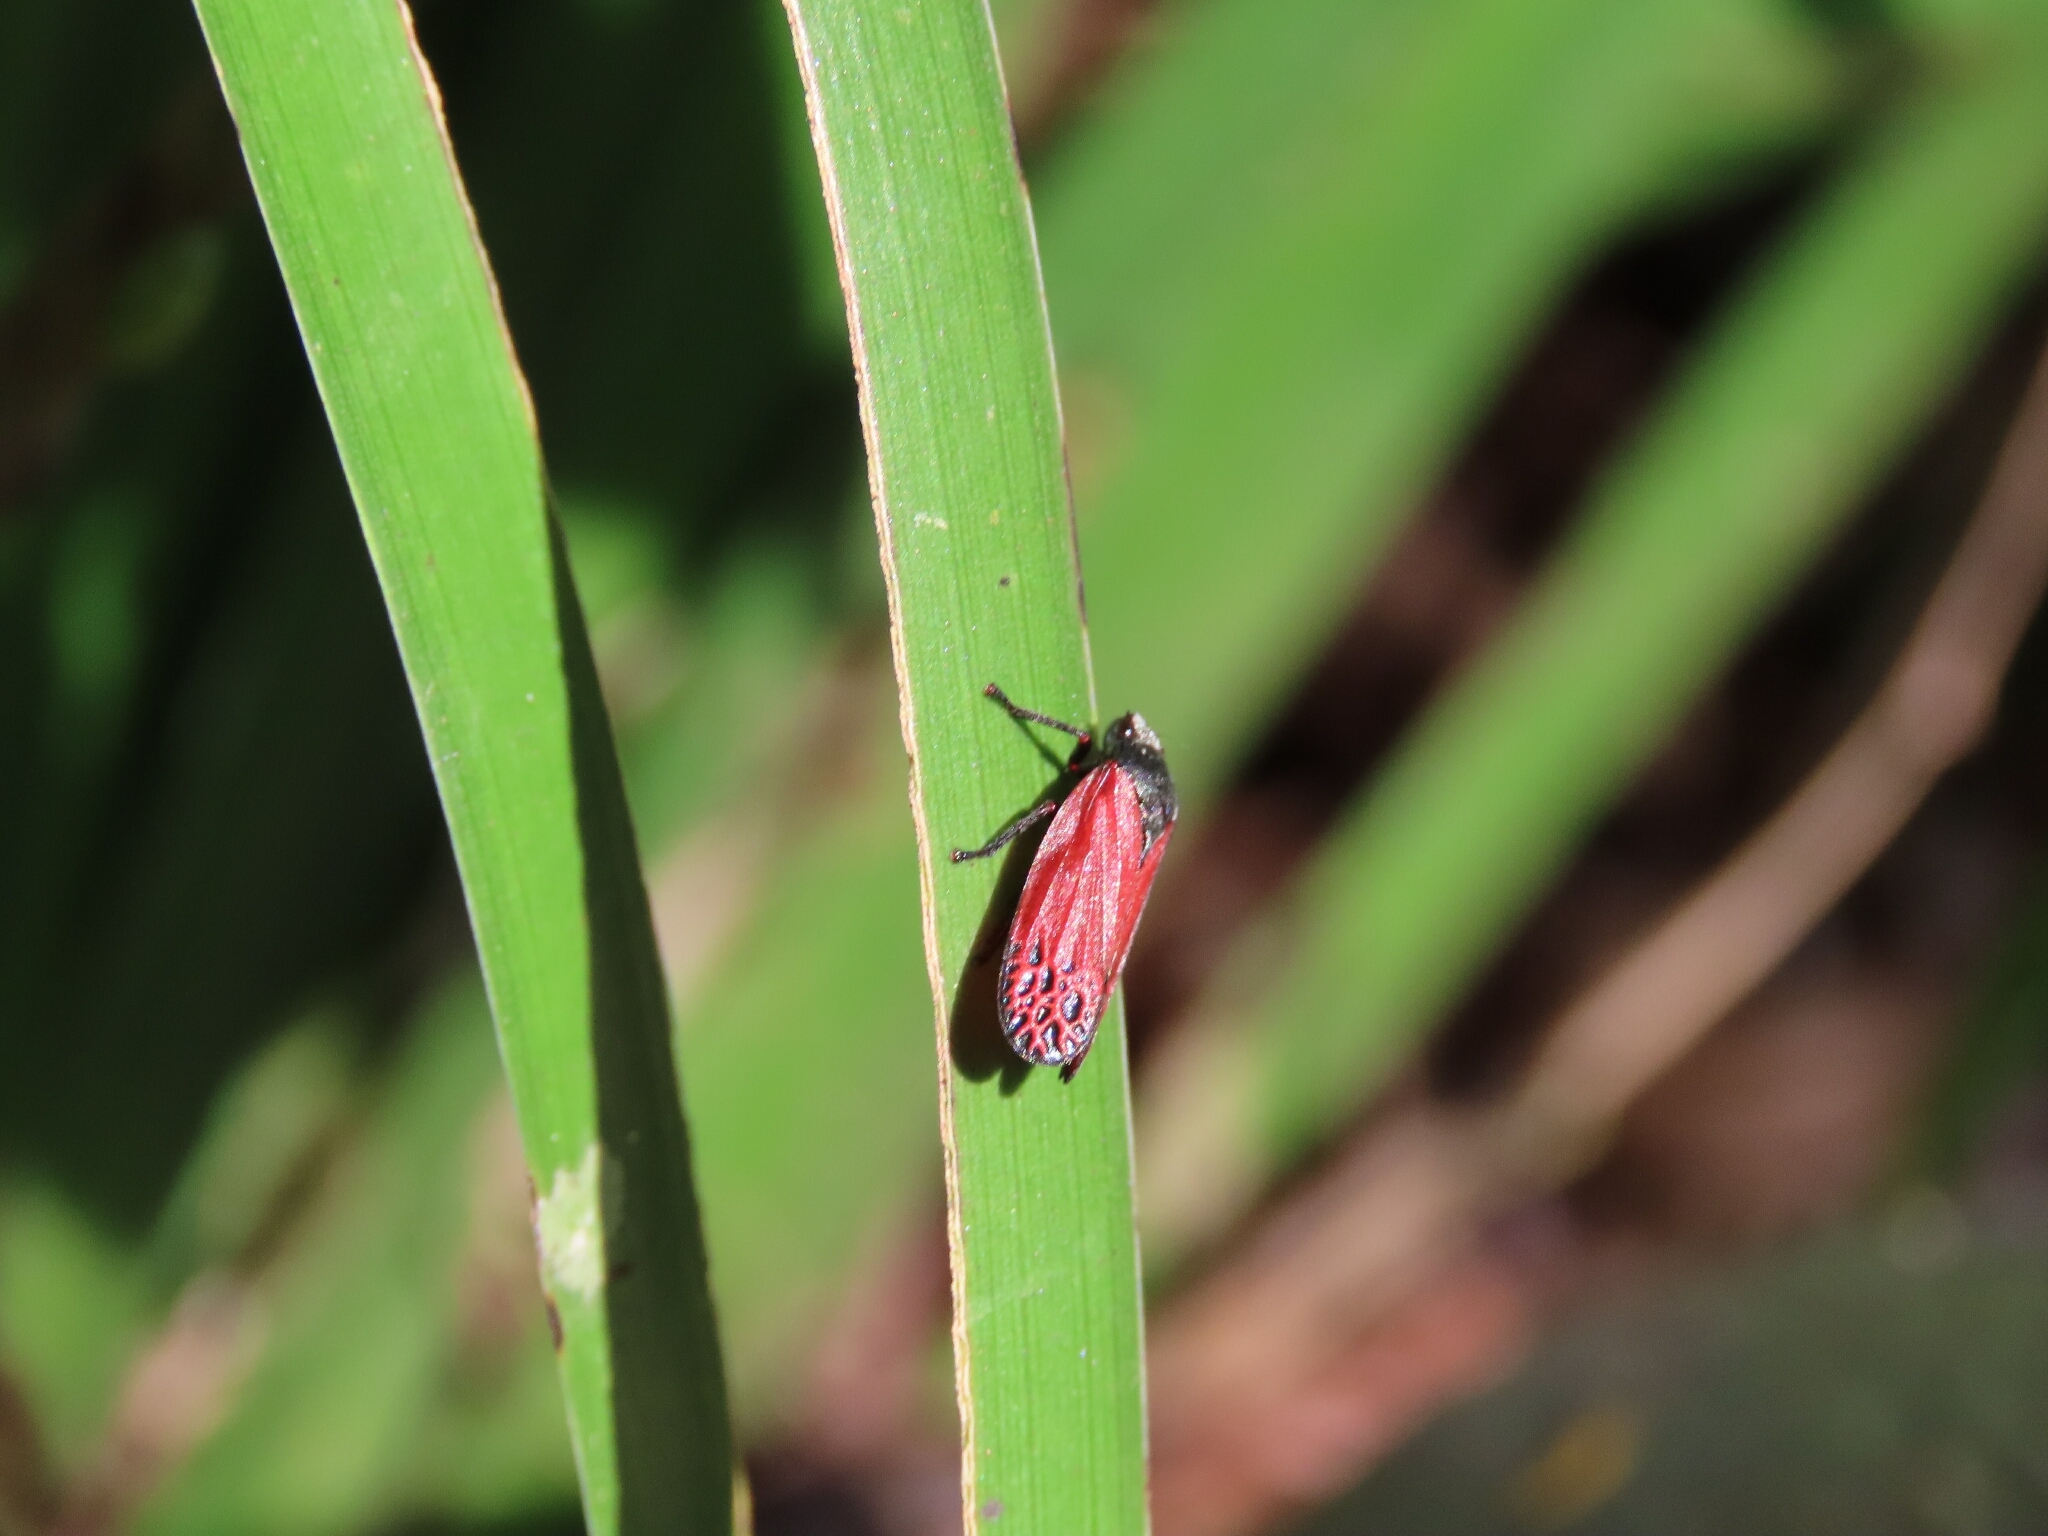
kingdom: Animalia
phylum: Arthropoda
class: Insecta
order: Hemiptera
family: Cercopidae
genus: Mahanarva
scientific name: Mahanarva rubripennis
